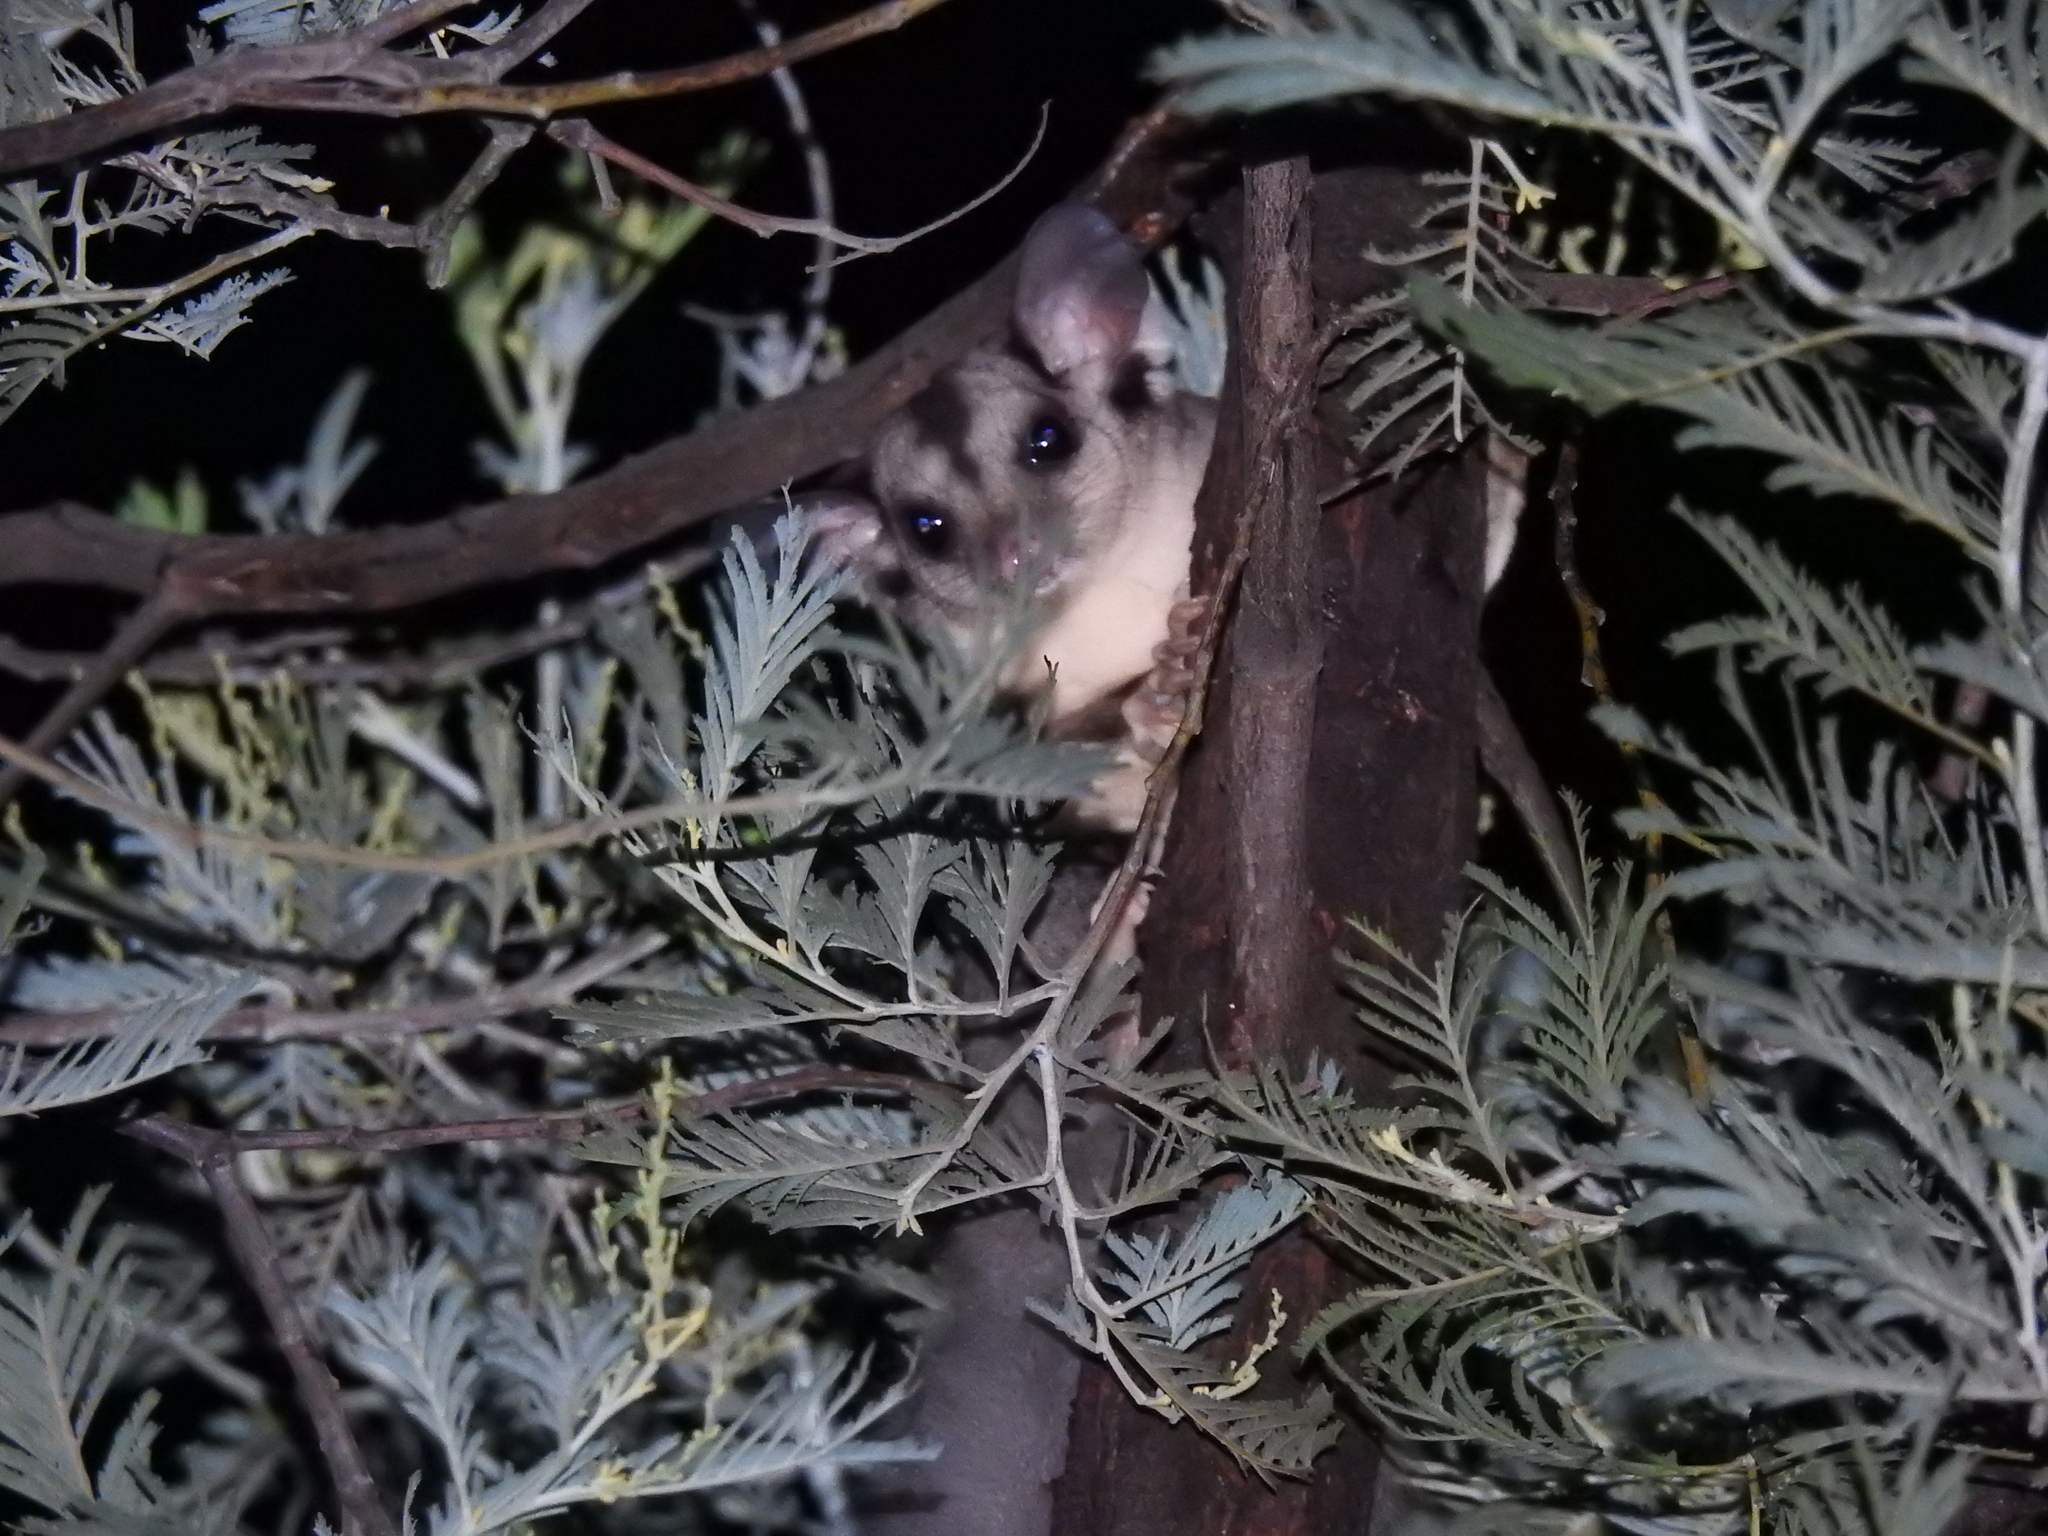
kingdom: Animalia
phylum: Chordata
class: Mammalia
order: Diprotodontia
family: Petauridae
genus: Petaurus
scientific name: Petaurus norfolcensis
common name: Squirrel glider
